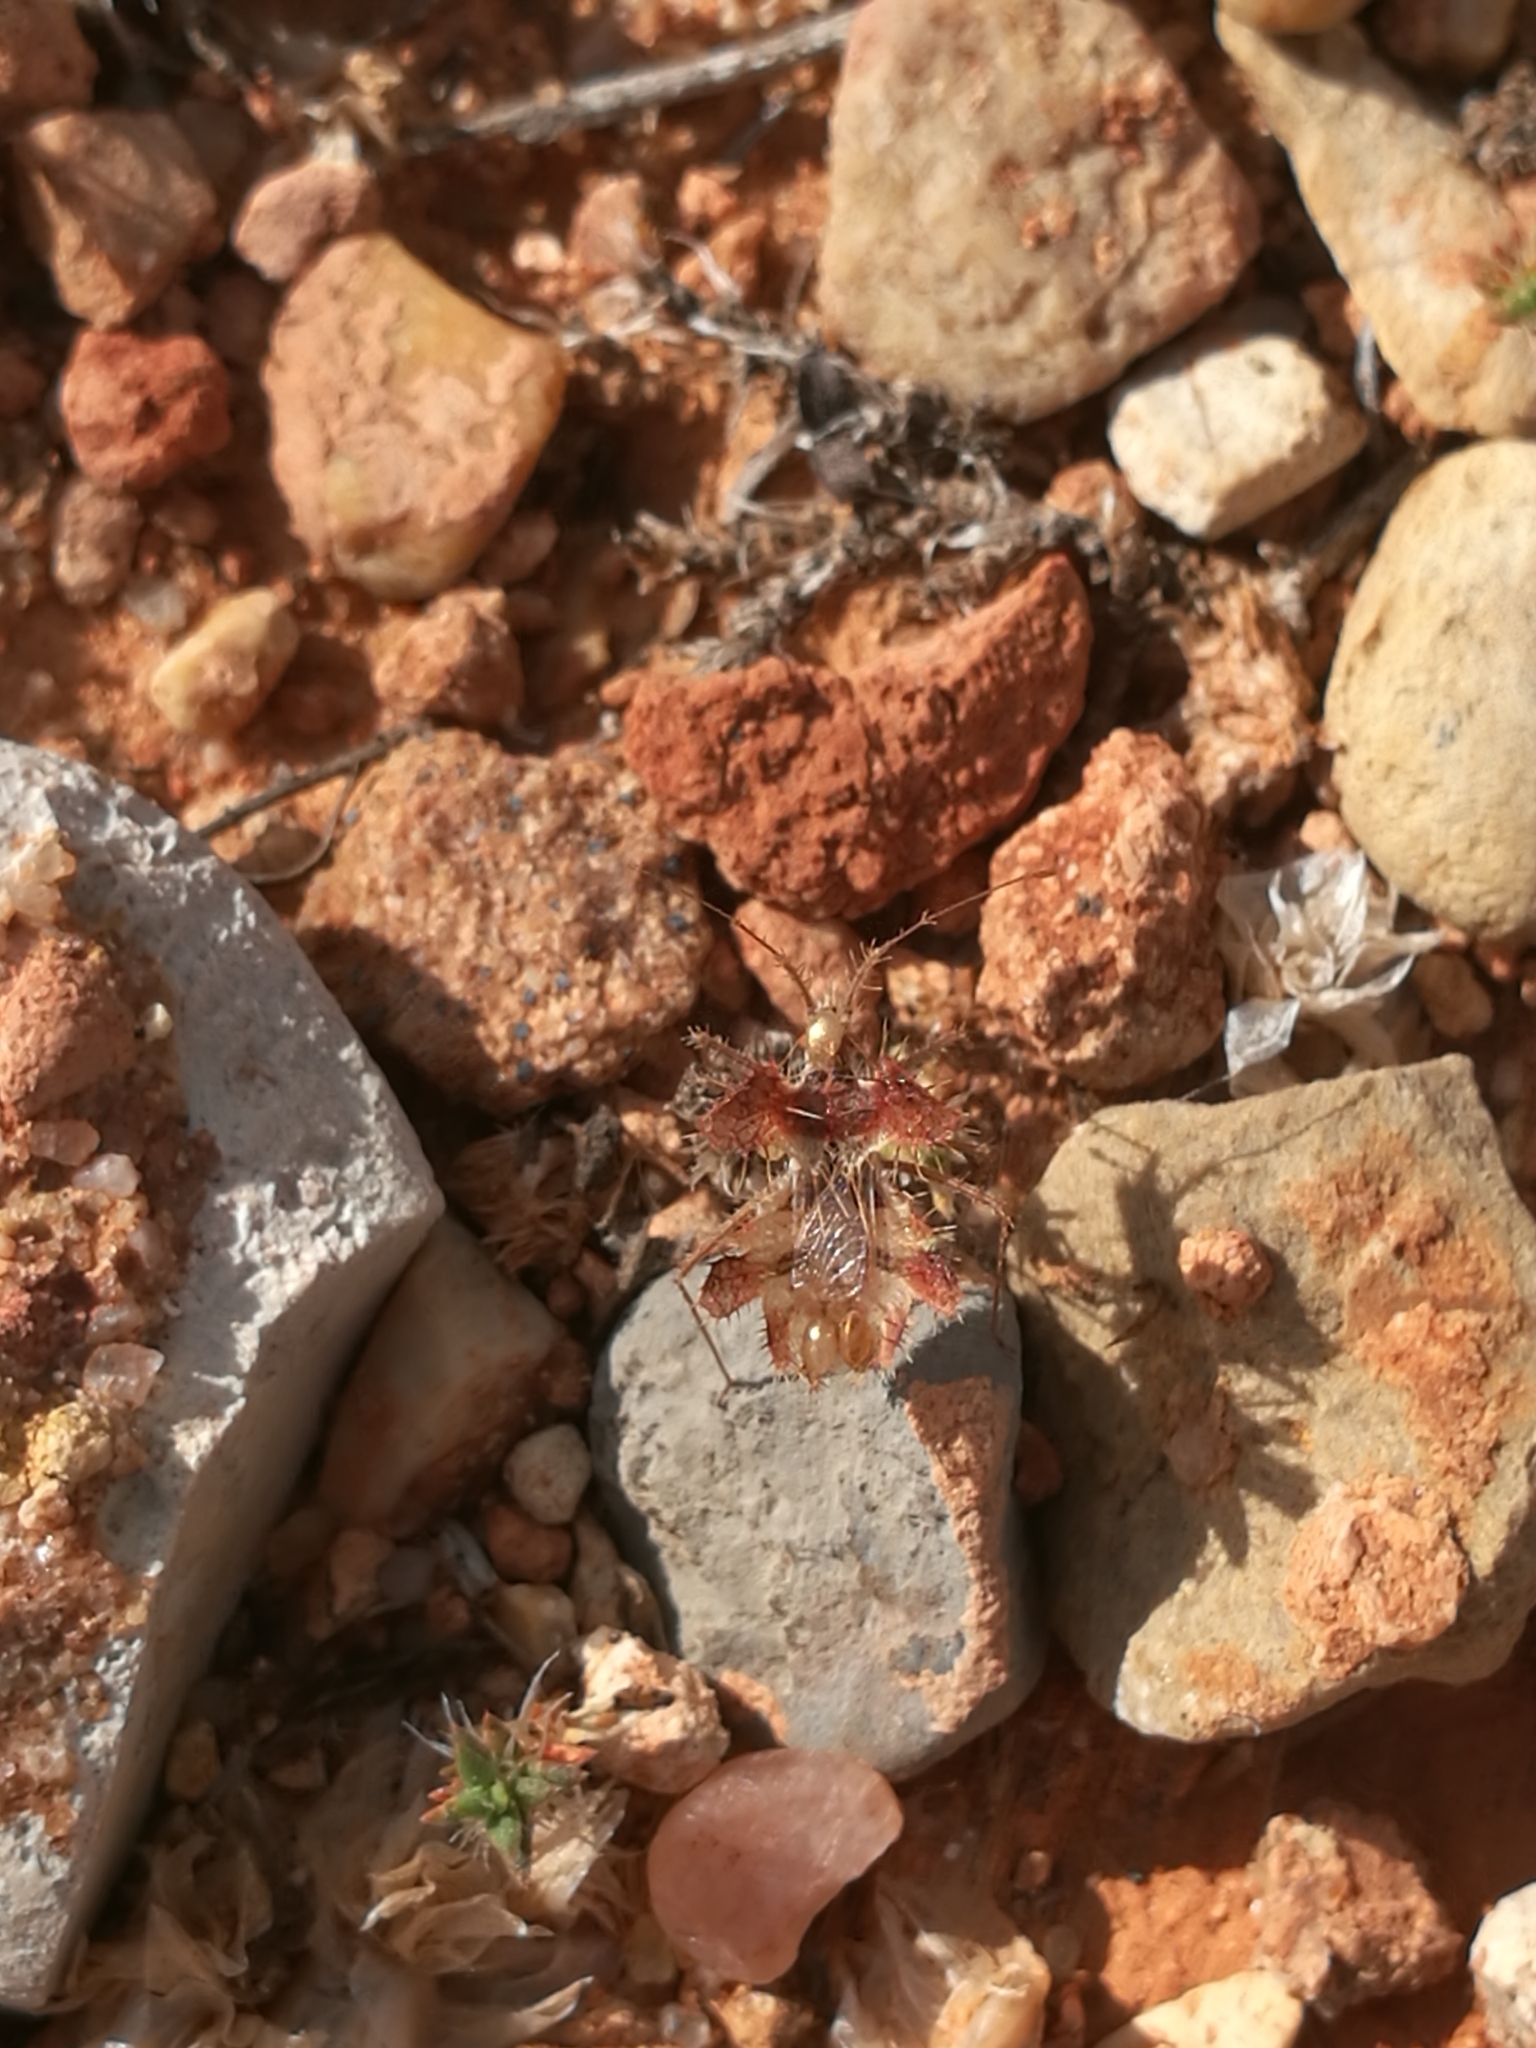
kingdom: Animalia
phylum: Arthropoda
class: Insecta
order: Hemiptera
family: Coreidae
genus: Phyllomorpha
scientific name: Phyllomorpha laciniata
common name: Golden egg bug
